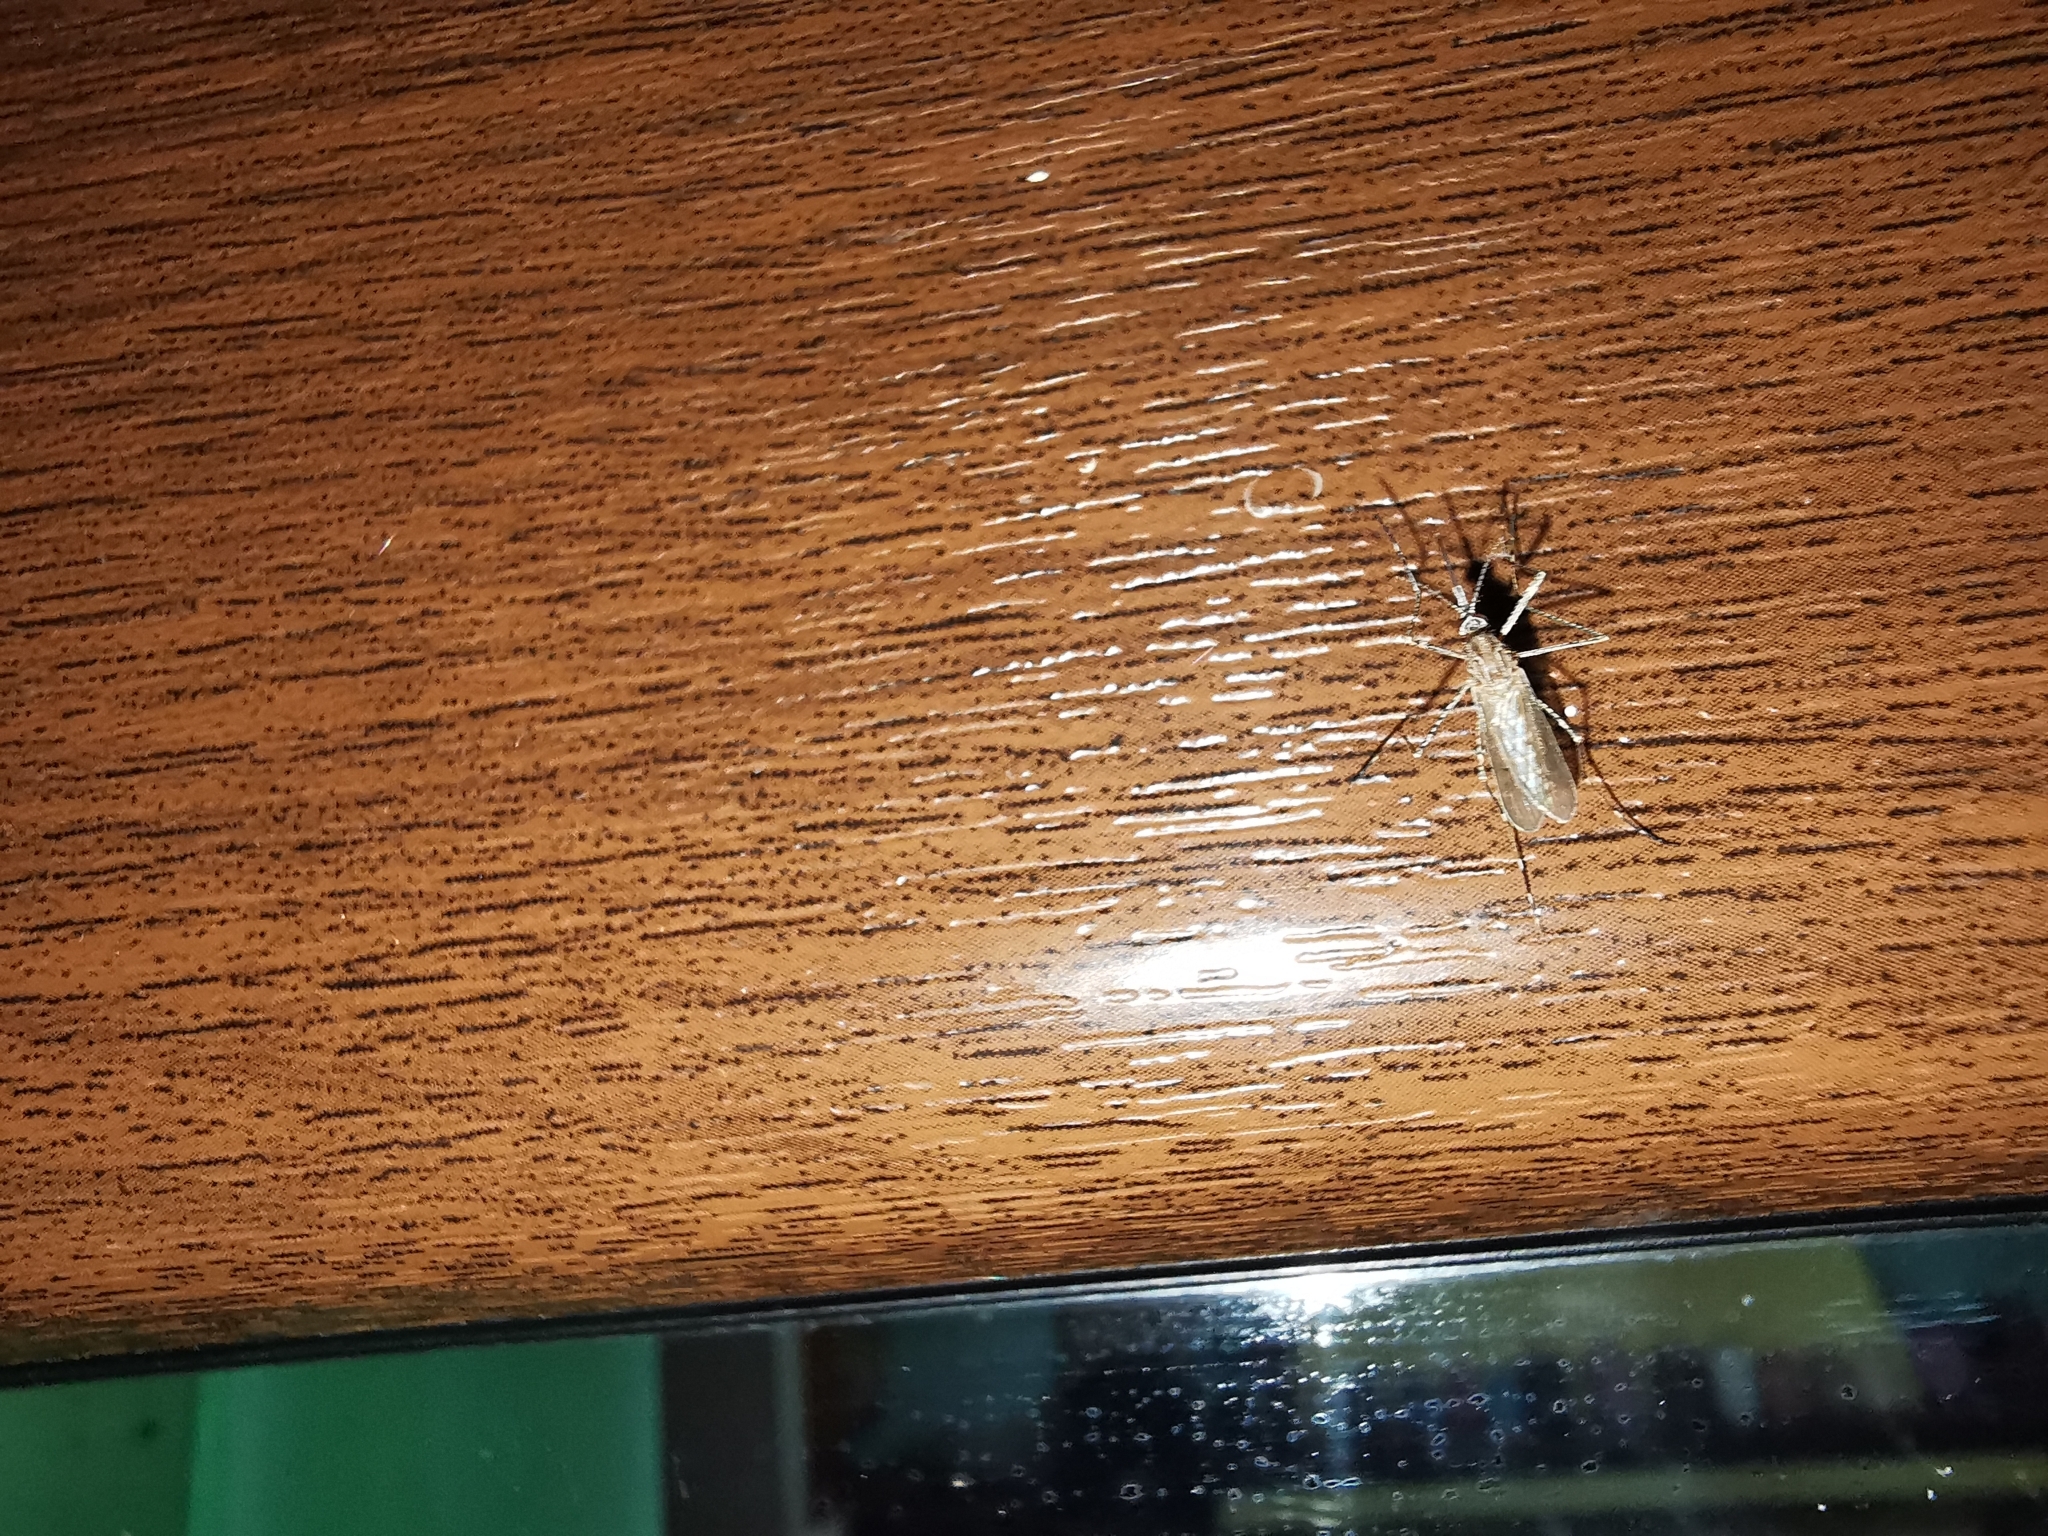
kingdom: Animalia
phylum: Arthropoda
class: Insecta
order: Diptera
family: Culicidae
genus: Culiseta
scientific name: Culiseta longiareolata
